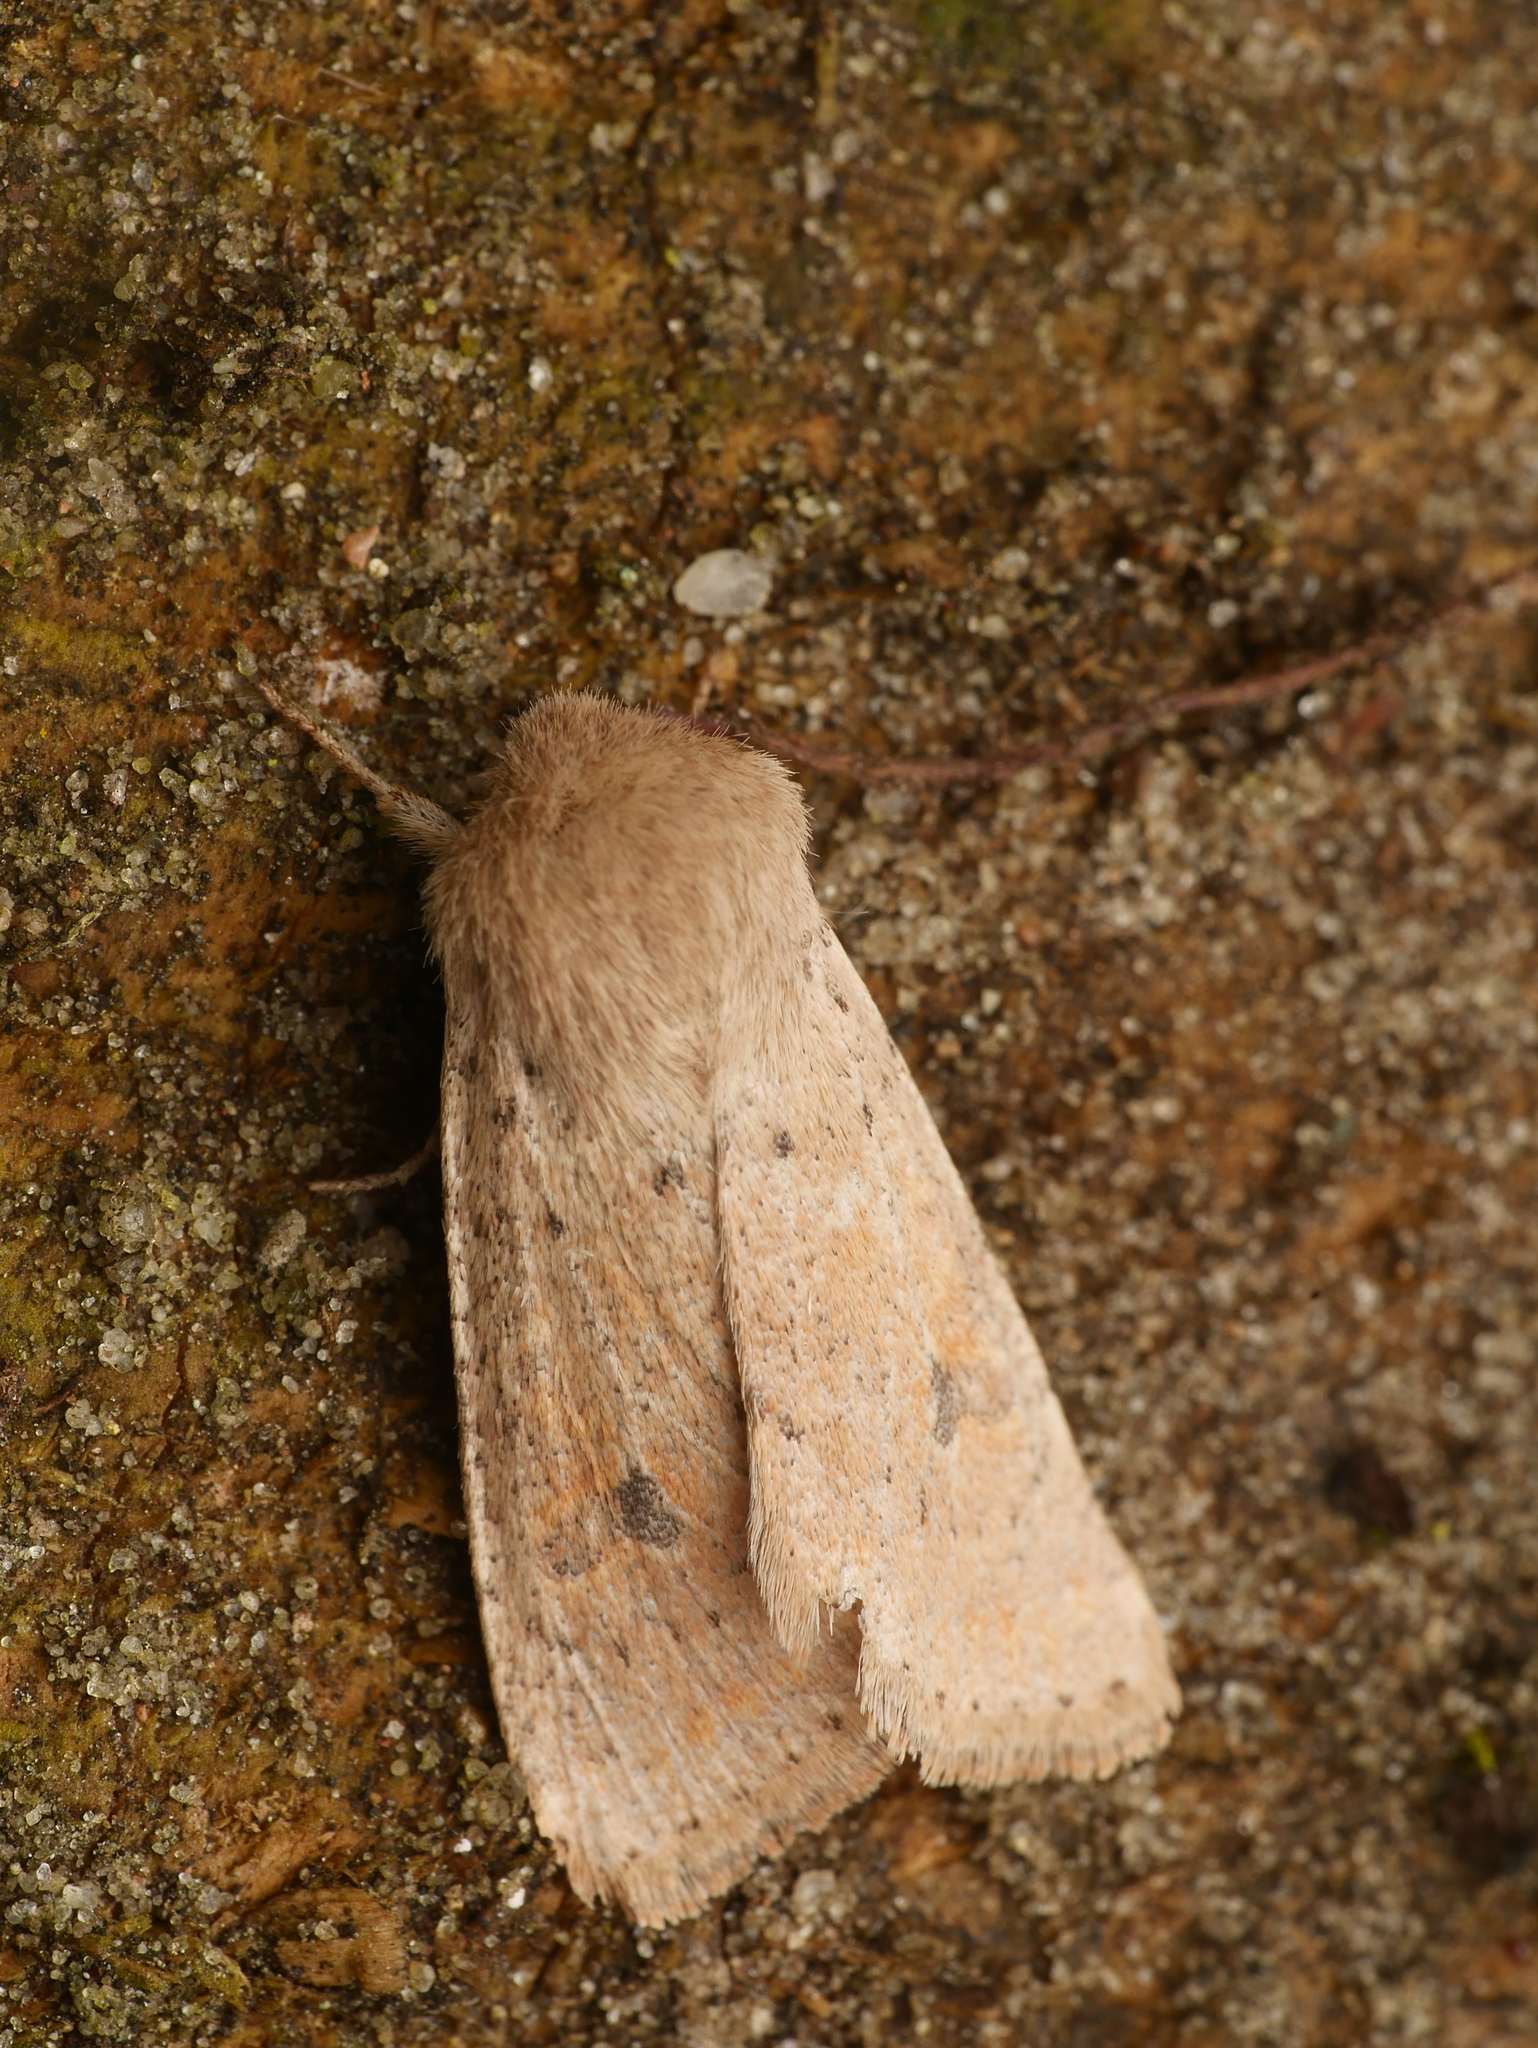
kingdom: Animalia
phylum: Arthropoda
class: Insecta
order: Lepidoptera
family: Noctuidae
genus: Orthosia
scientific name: Orthosia cruda
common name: Small quaker
